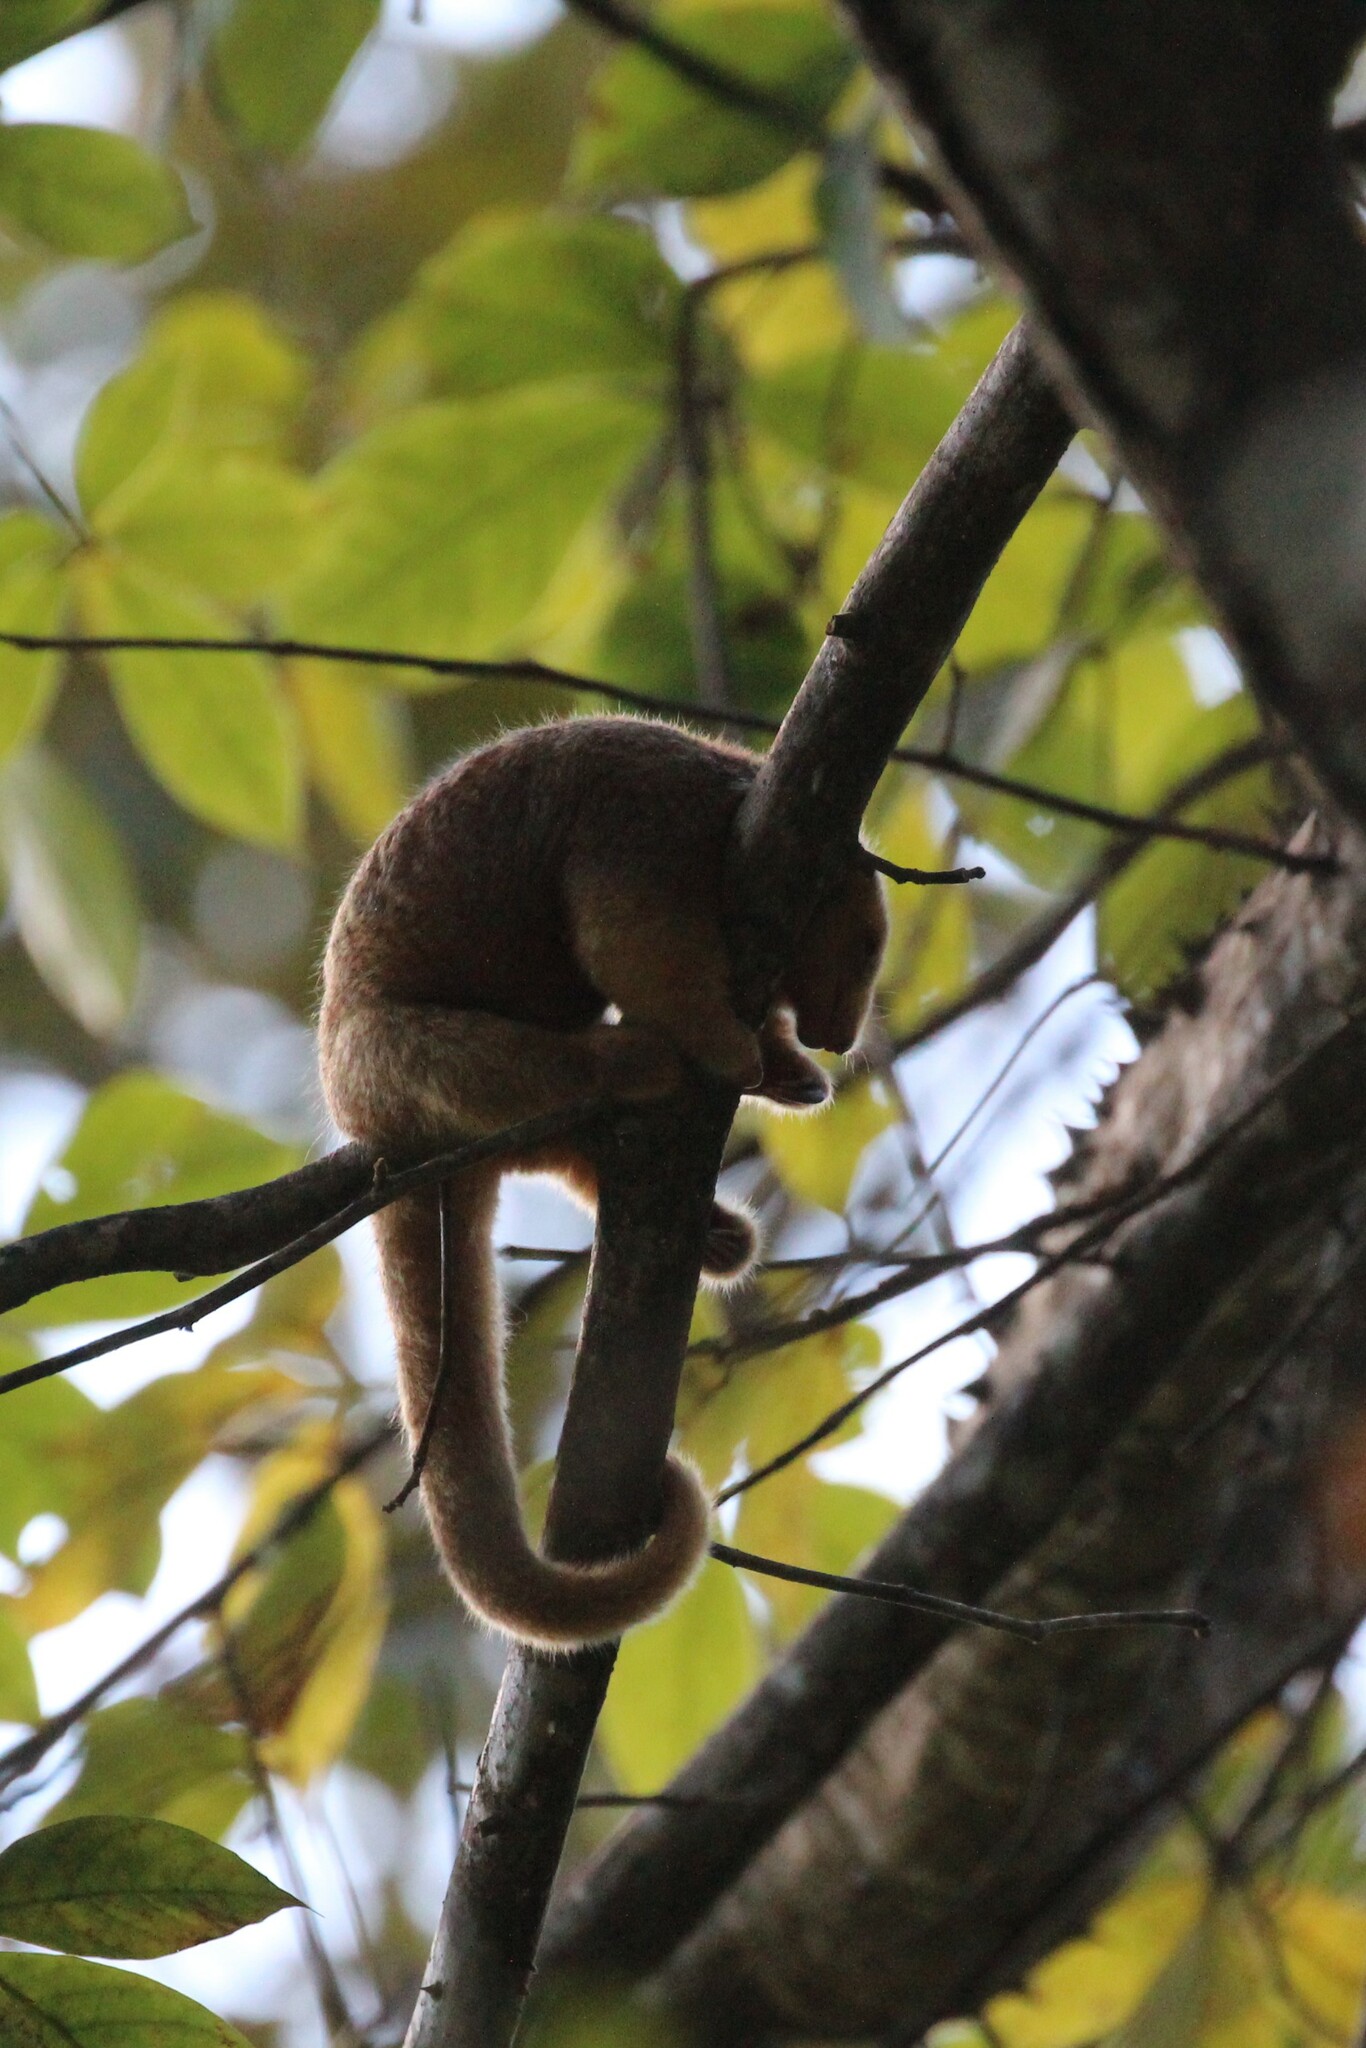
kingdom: Animalia
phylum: Chordata
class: Mammalia
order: Pilosa
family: Cyclopedidae
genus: Cyclopes
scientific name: Cyclopes dorsalis
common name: Central american silky anteater
